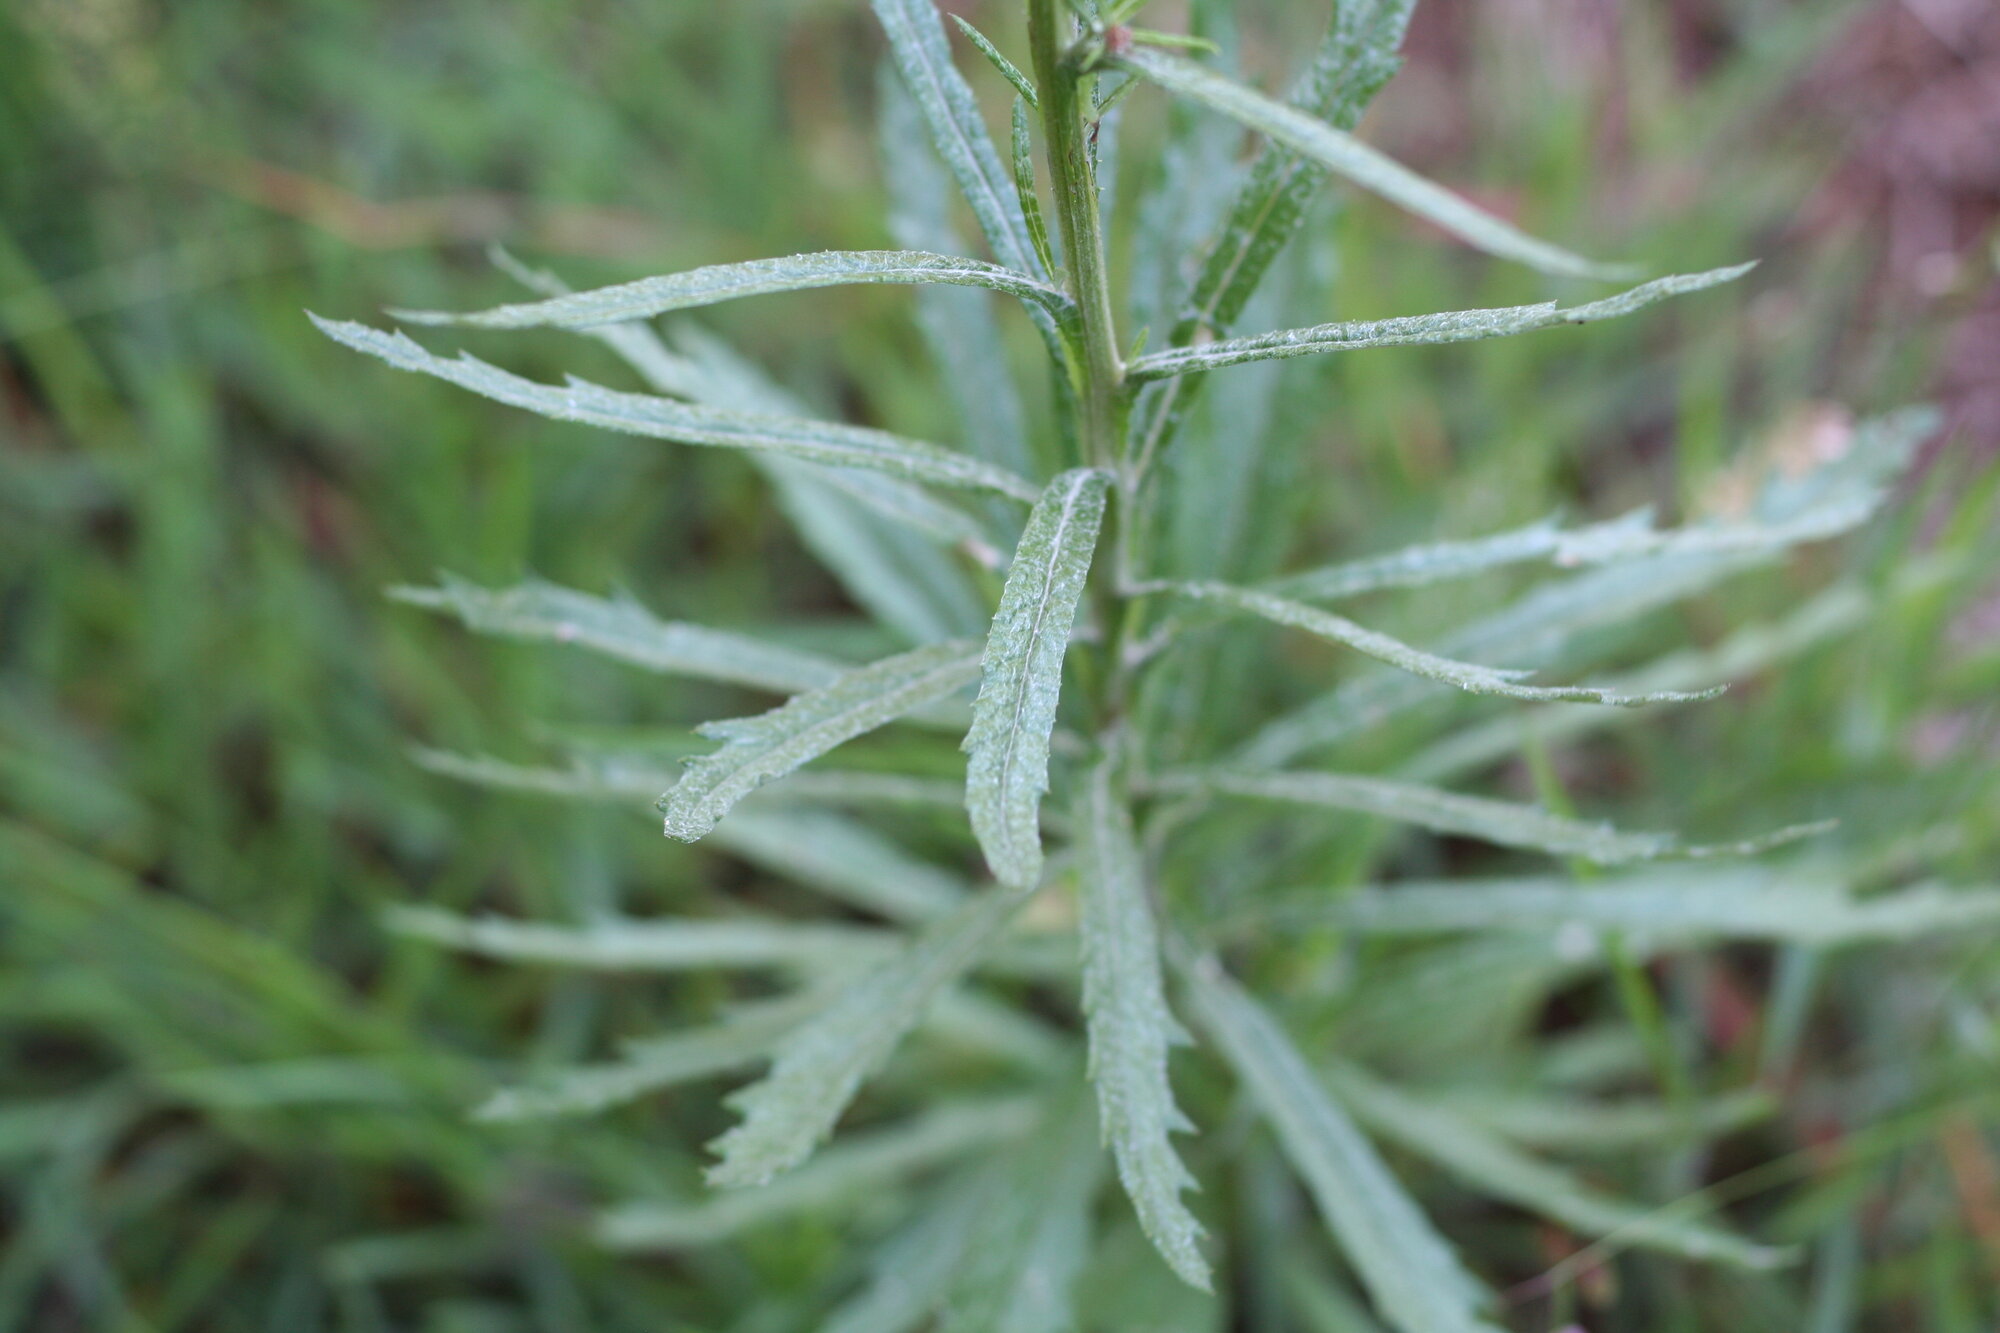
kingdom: Plantae
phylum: Tracheophyta
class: Magnoliopsida
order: Asterales
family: Asteraceae
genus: Senecio
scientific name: Senecio pterophorus
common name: Shoddy ragwort
